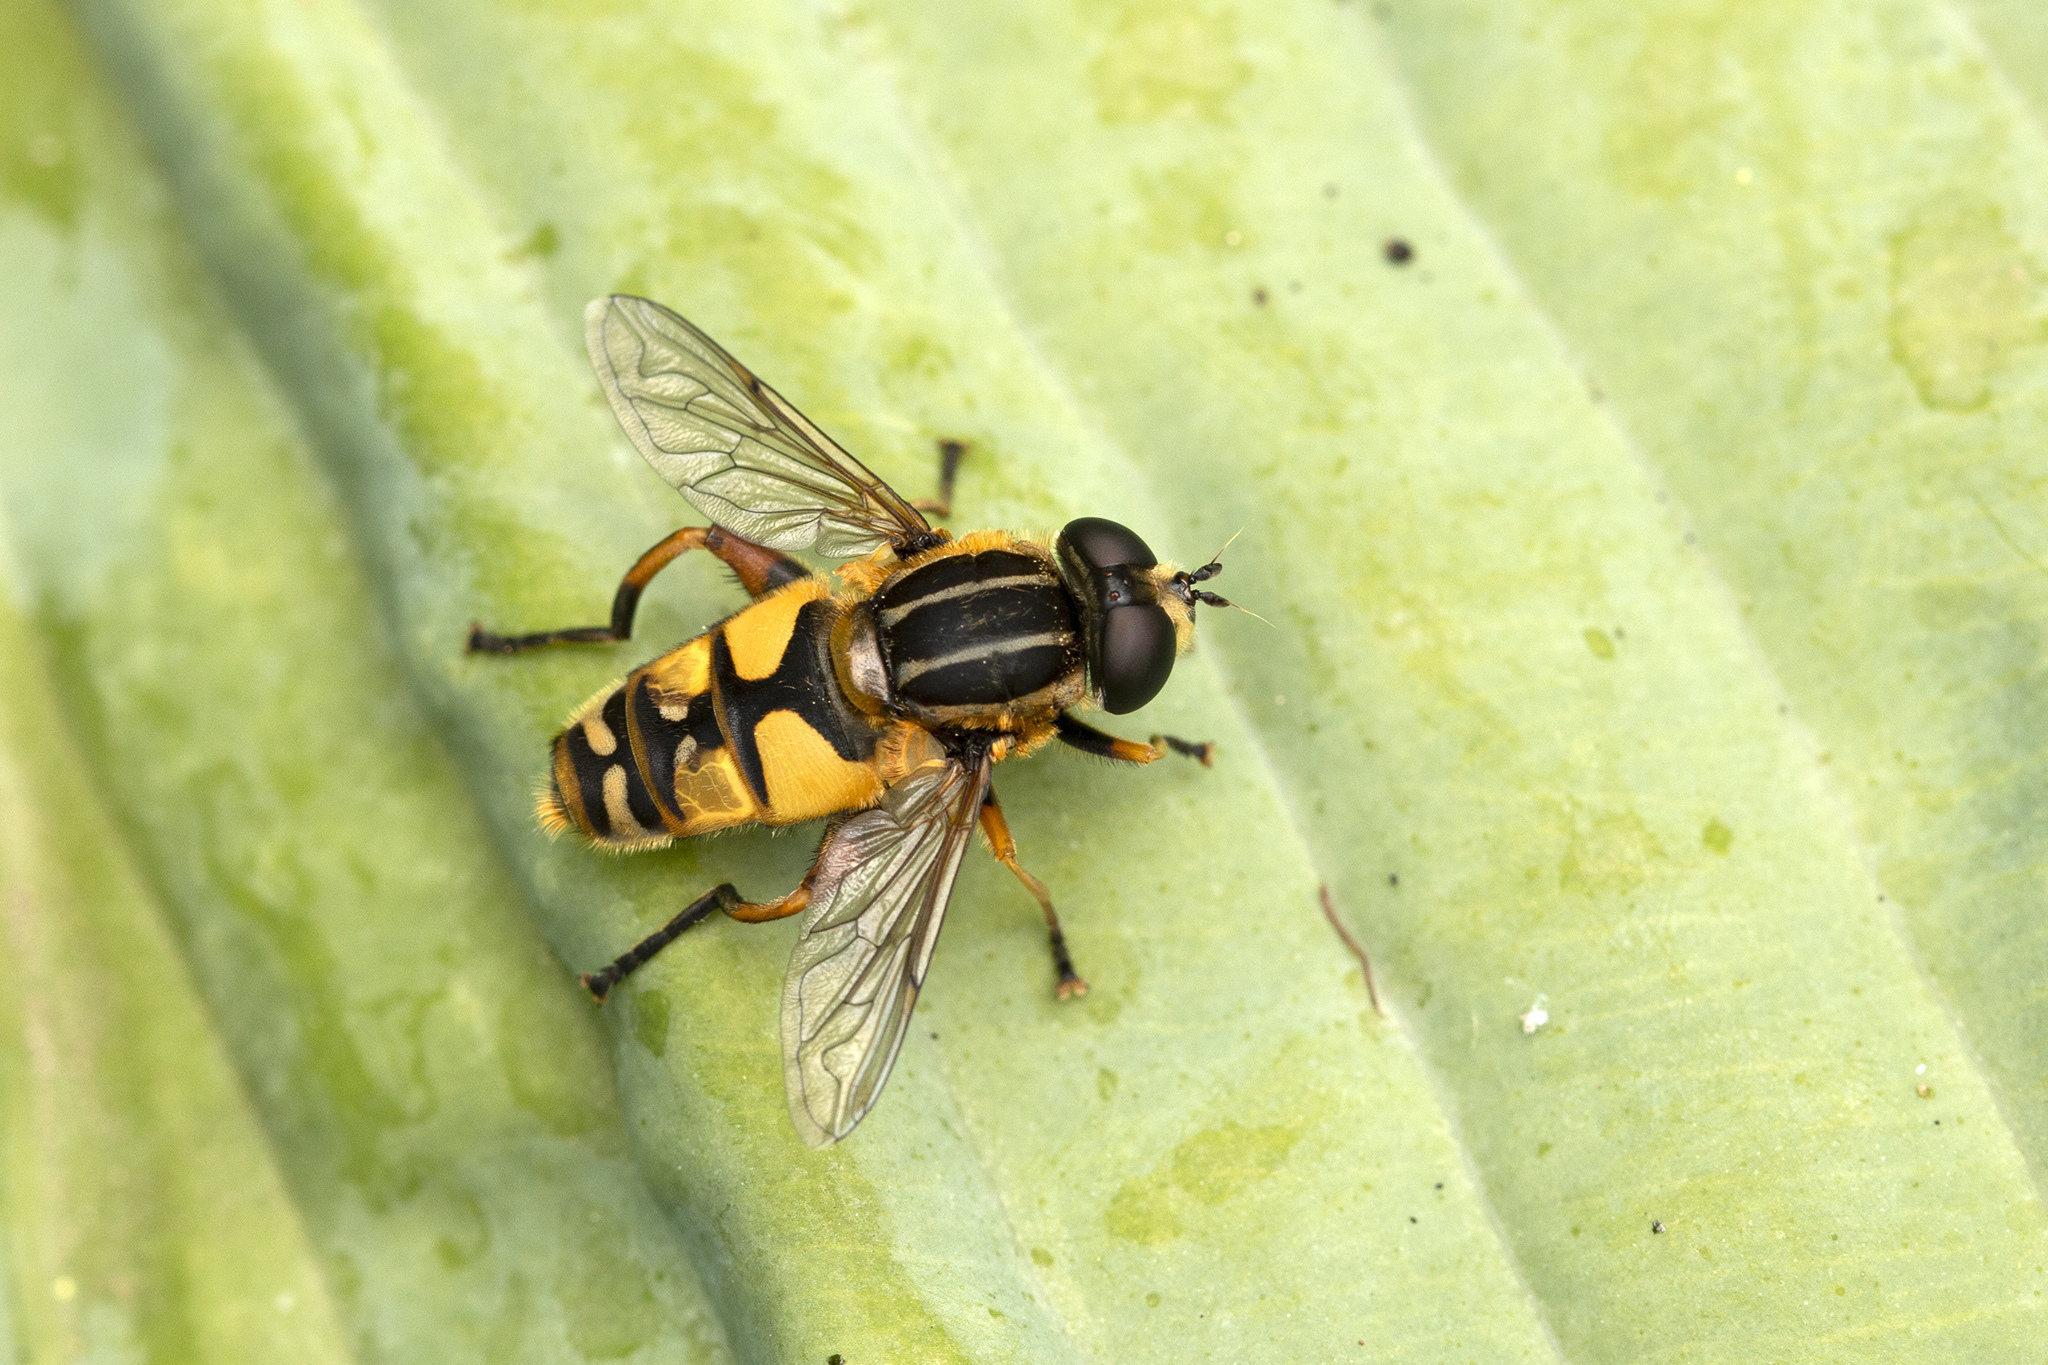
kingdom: Animalia
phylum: Arthropoda
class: Insecta
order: Diptera
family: Syrphidae
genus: Helophilus
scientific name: Helophilus pendulus
